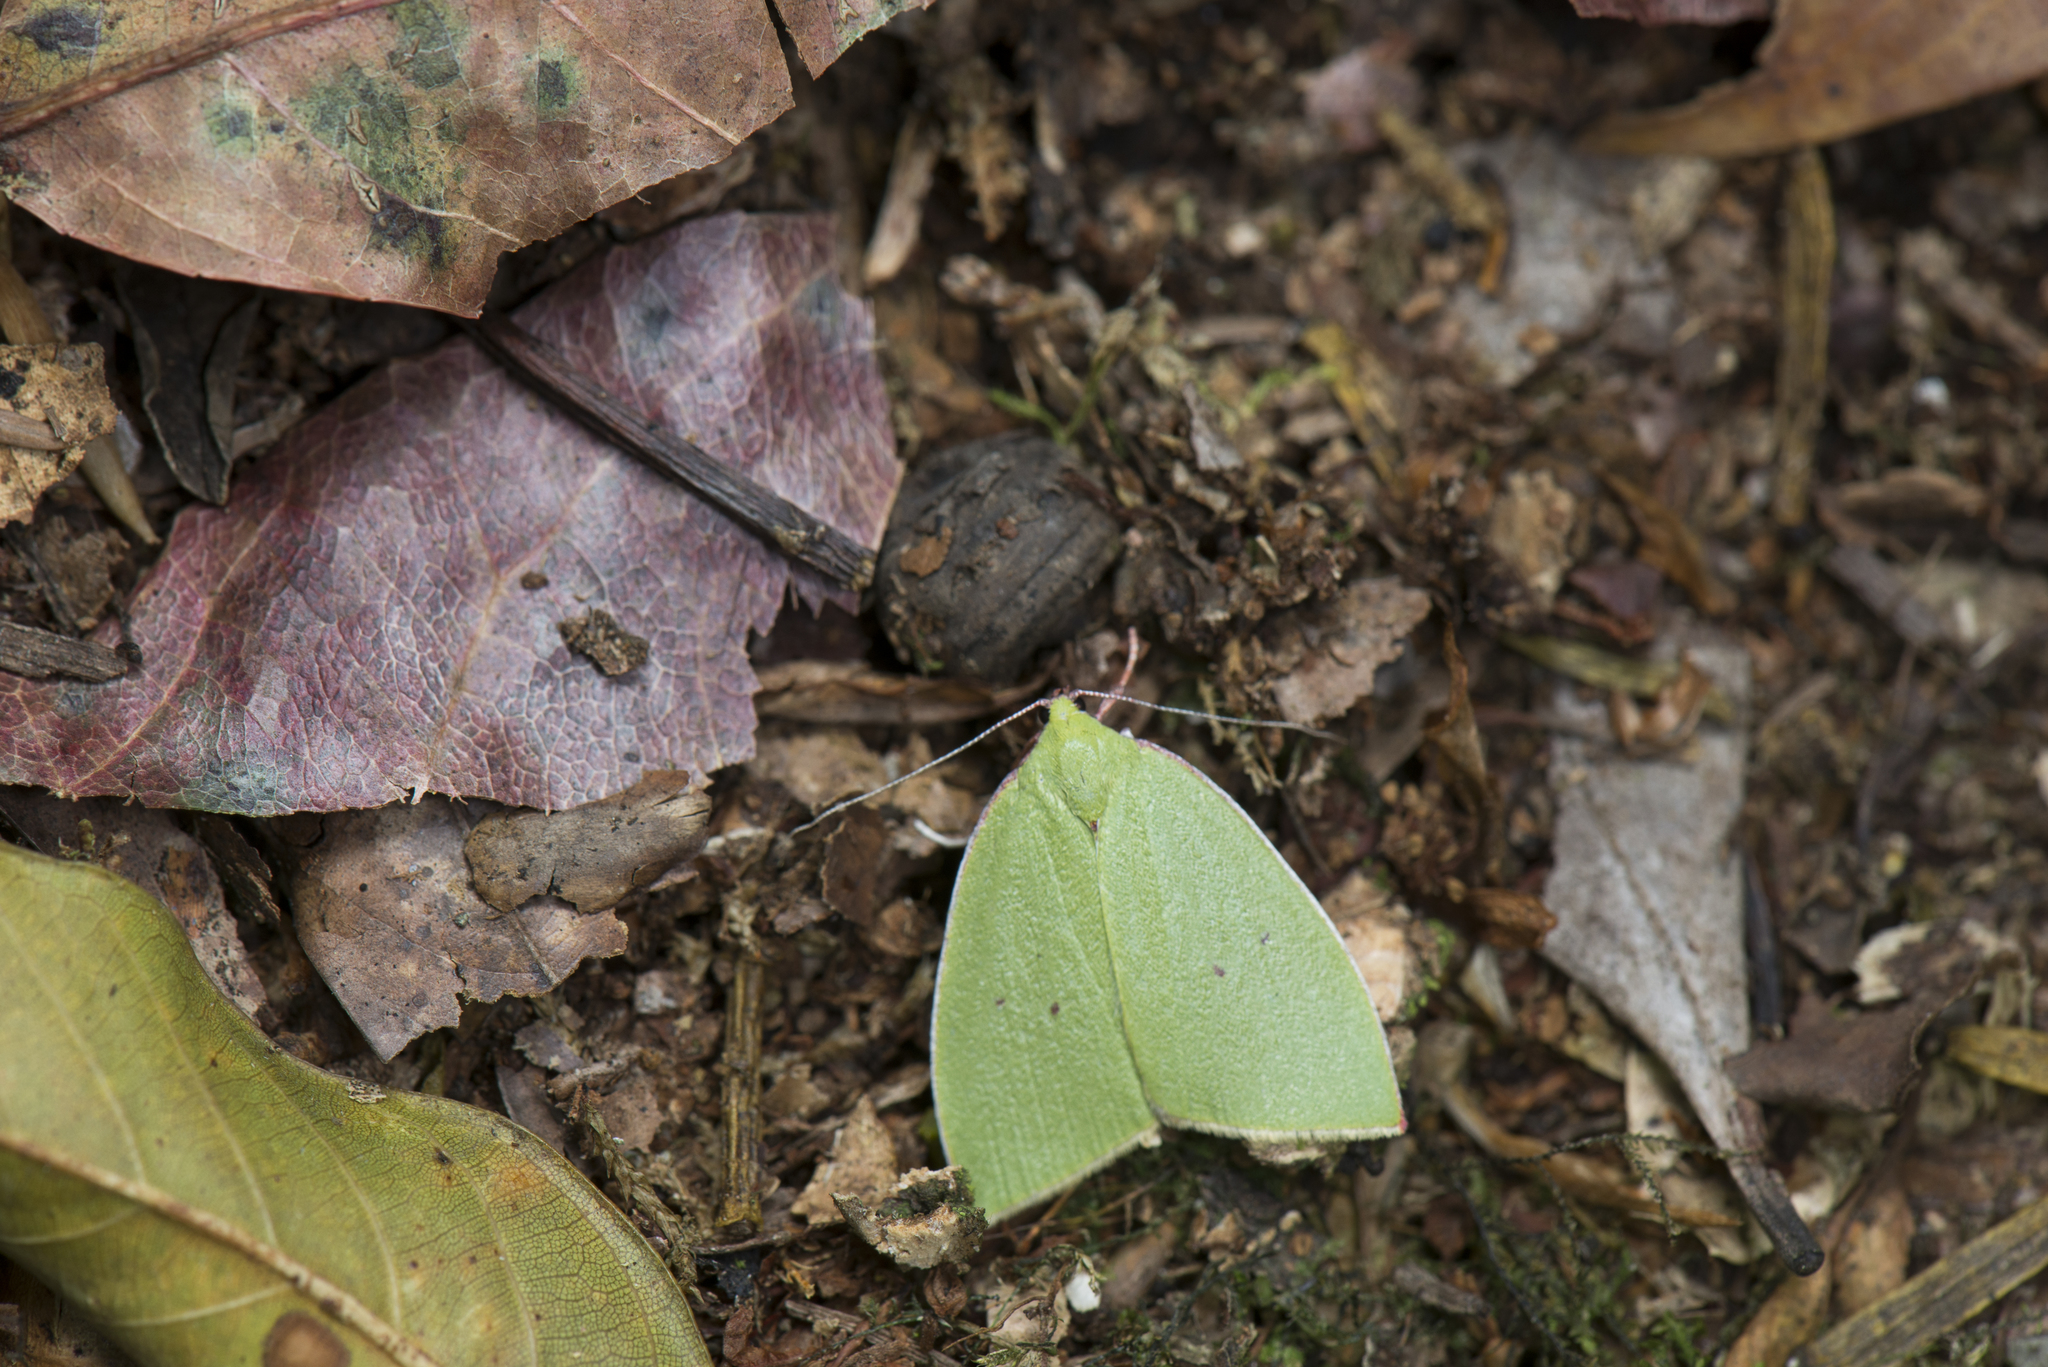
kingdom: Animalia
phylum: Arthropoda
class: Insecta
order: Lepidoptera
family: Nolidae
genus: Tyana
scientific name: Tyana falcata
